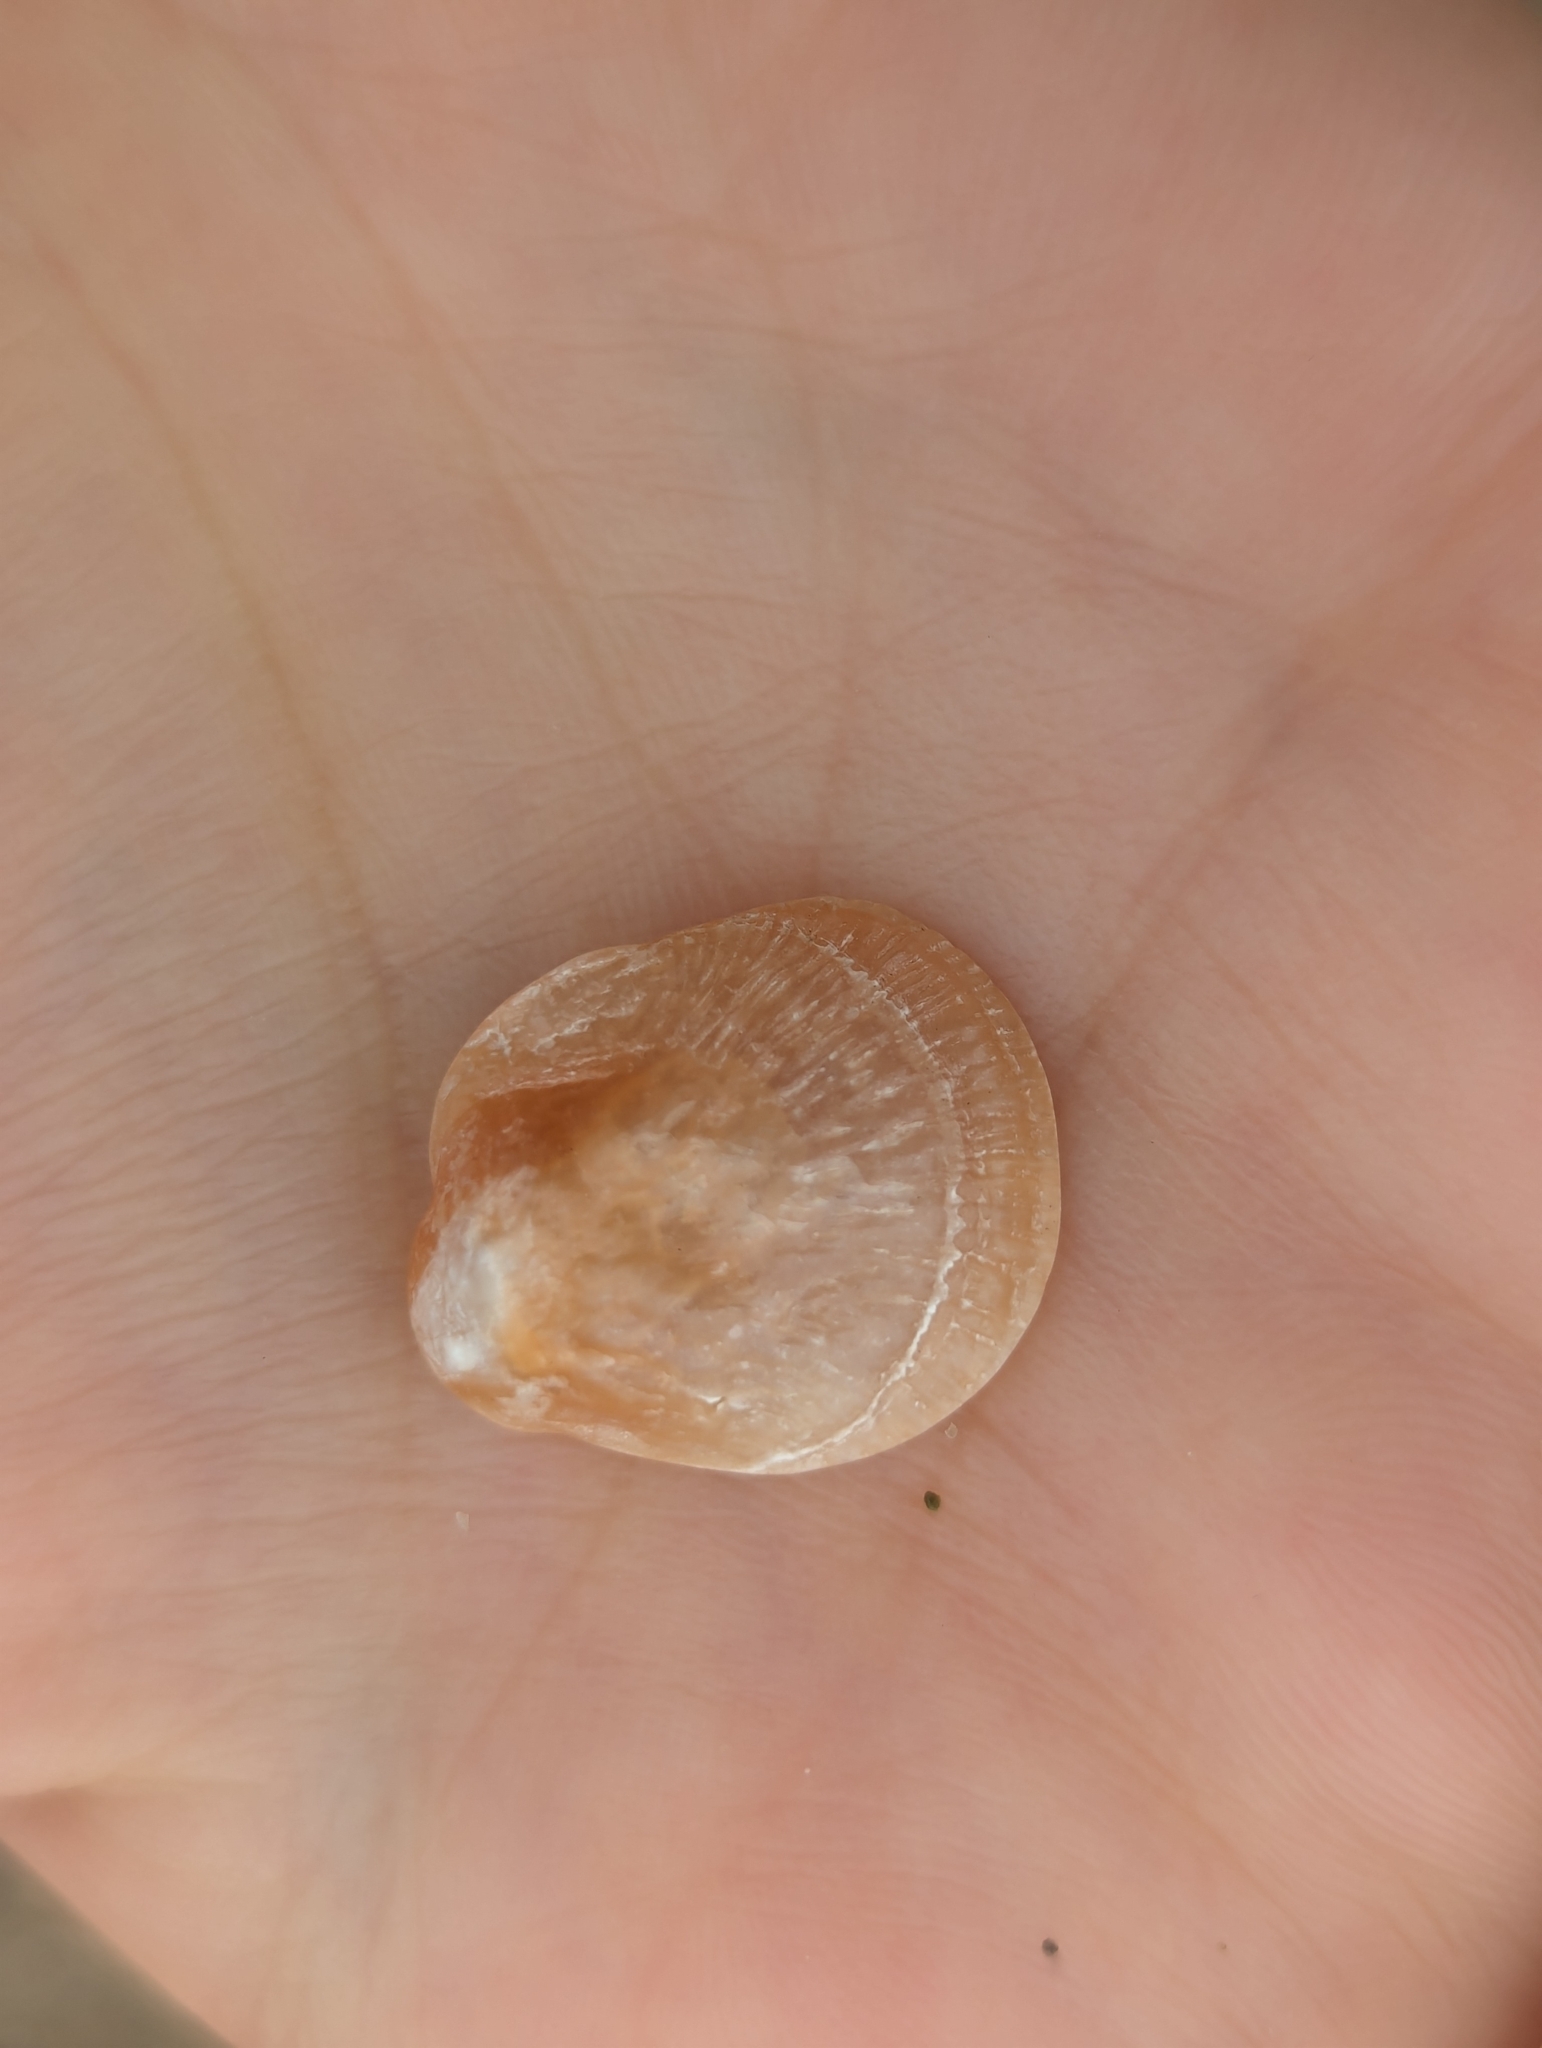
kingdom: Animalia
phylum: Mollusca
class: Bivalvia
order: Pectinida
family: Anomiidae
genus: Anomia
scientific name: Anomia chinensis
